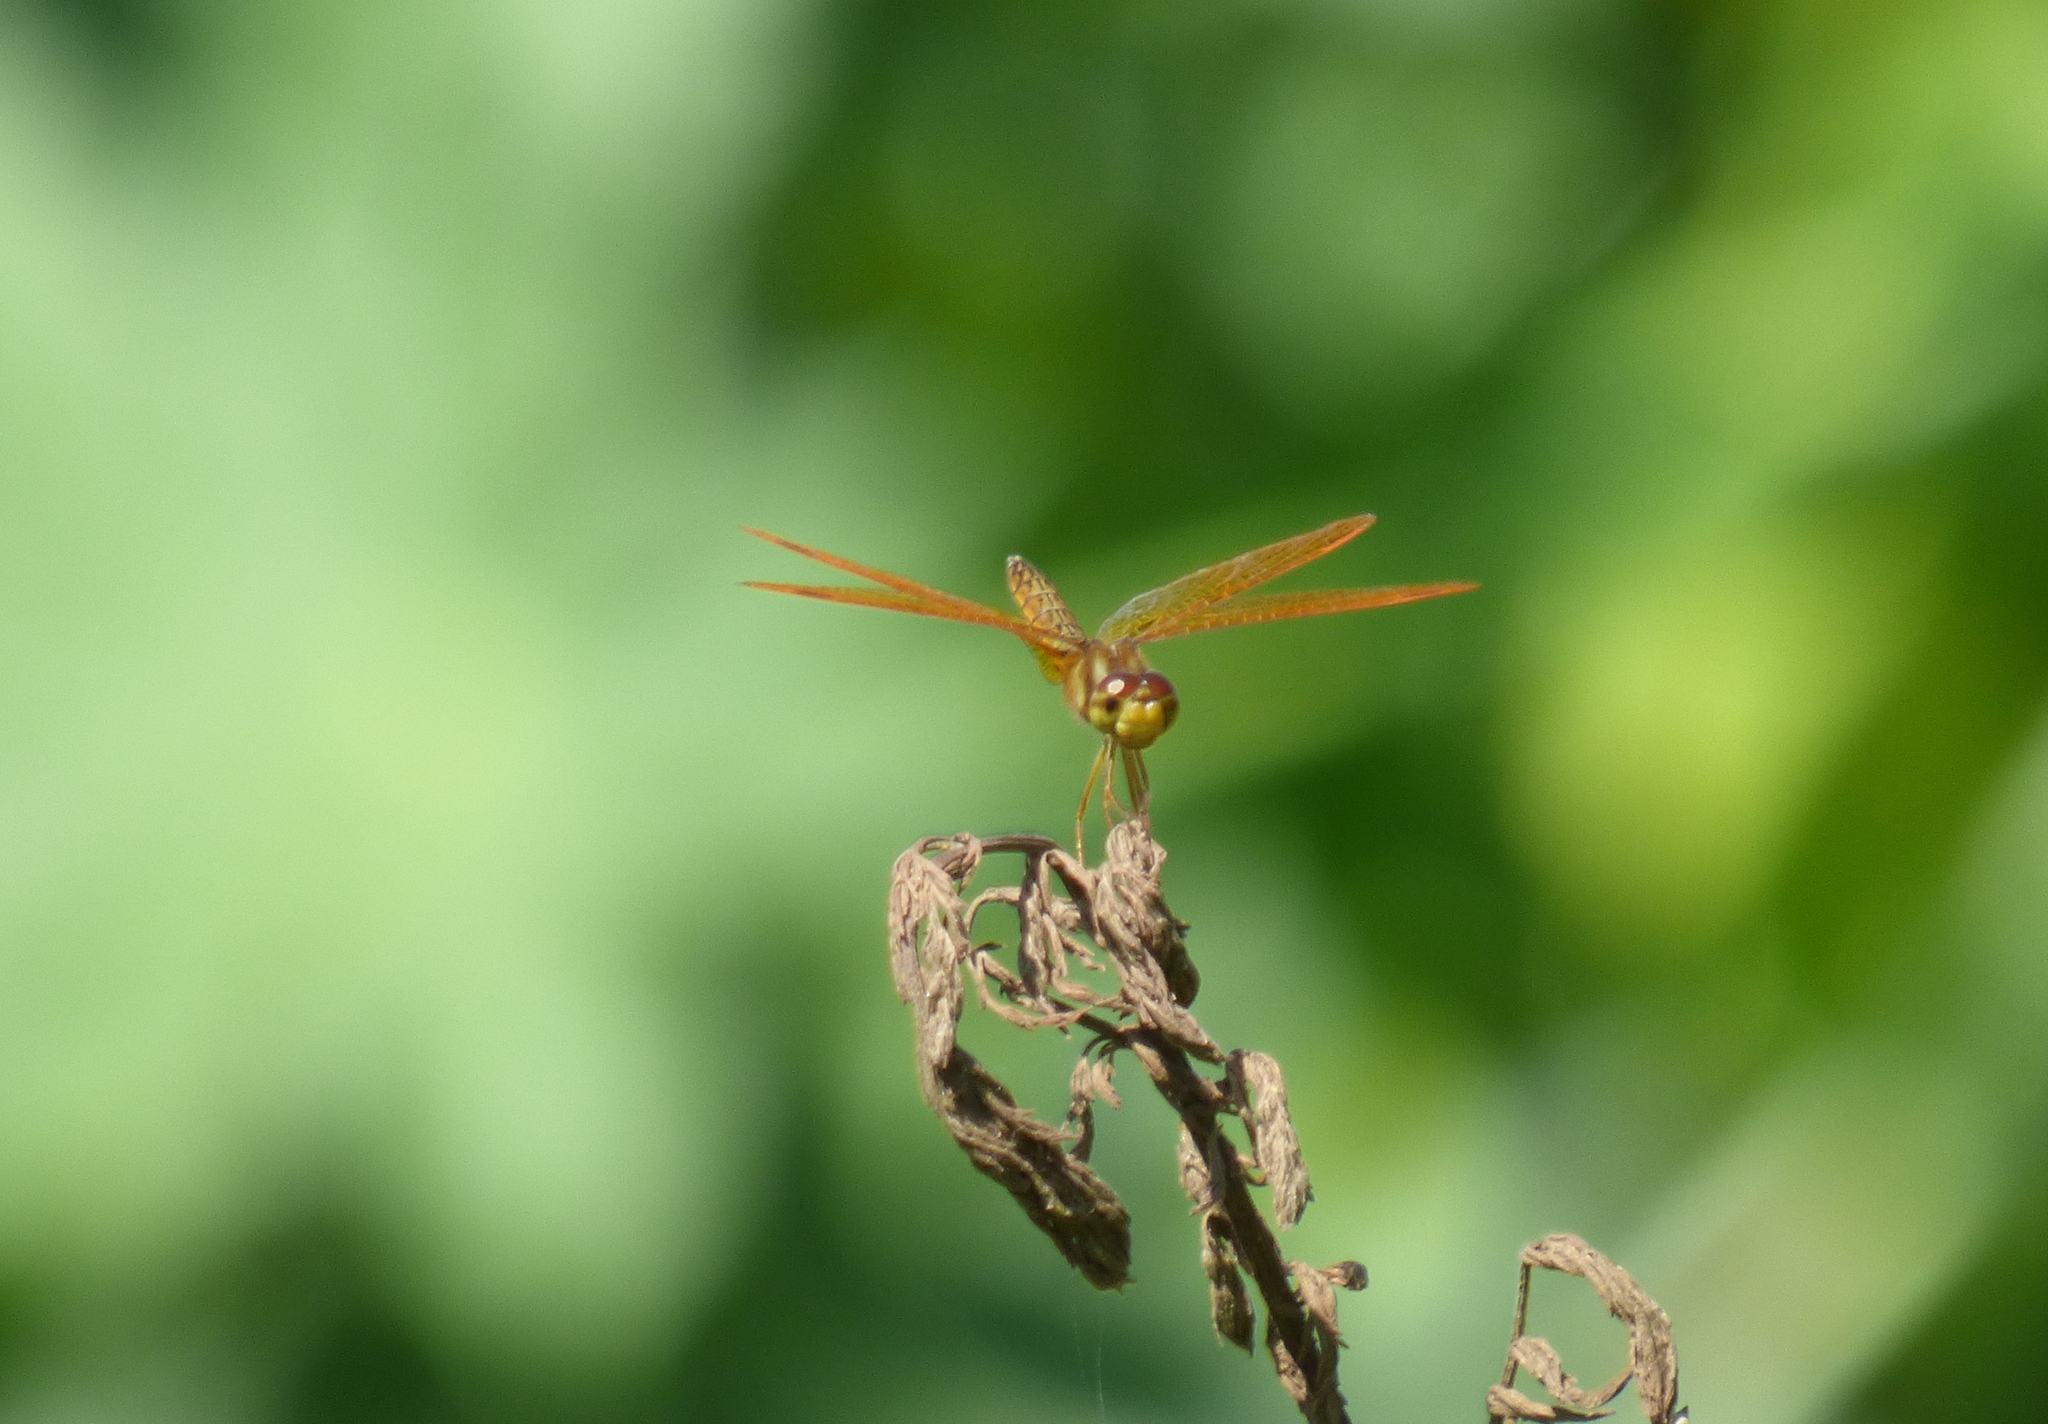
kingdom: Animalia
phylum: Arthropoda
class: Insecta
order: Odonata
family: Libellulidae
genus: Perithemis
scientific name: Perithemis tenera
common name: Eastern amberwing
